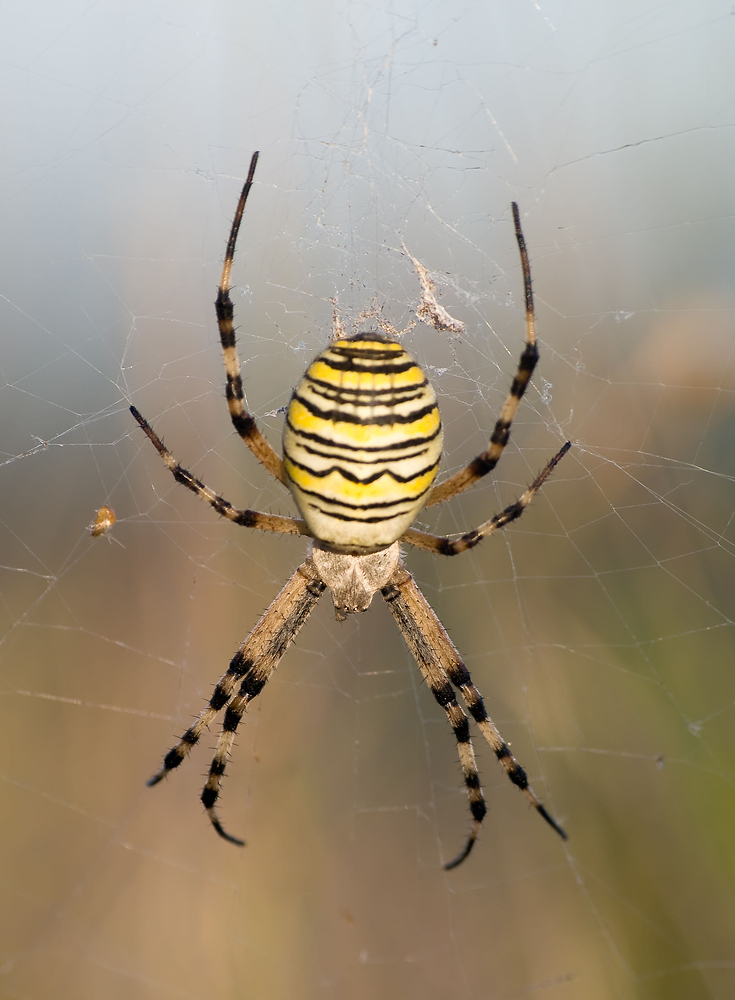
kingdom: Animalia
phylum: Arthropoda
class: Arachnida
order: Araneae
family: Araneidae
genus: Argiope
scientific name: Argiope bruennichi
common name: Wasp spider
